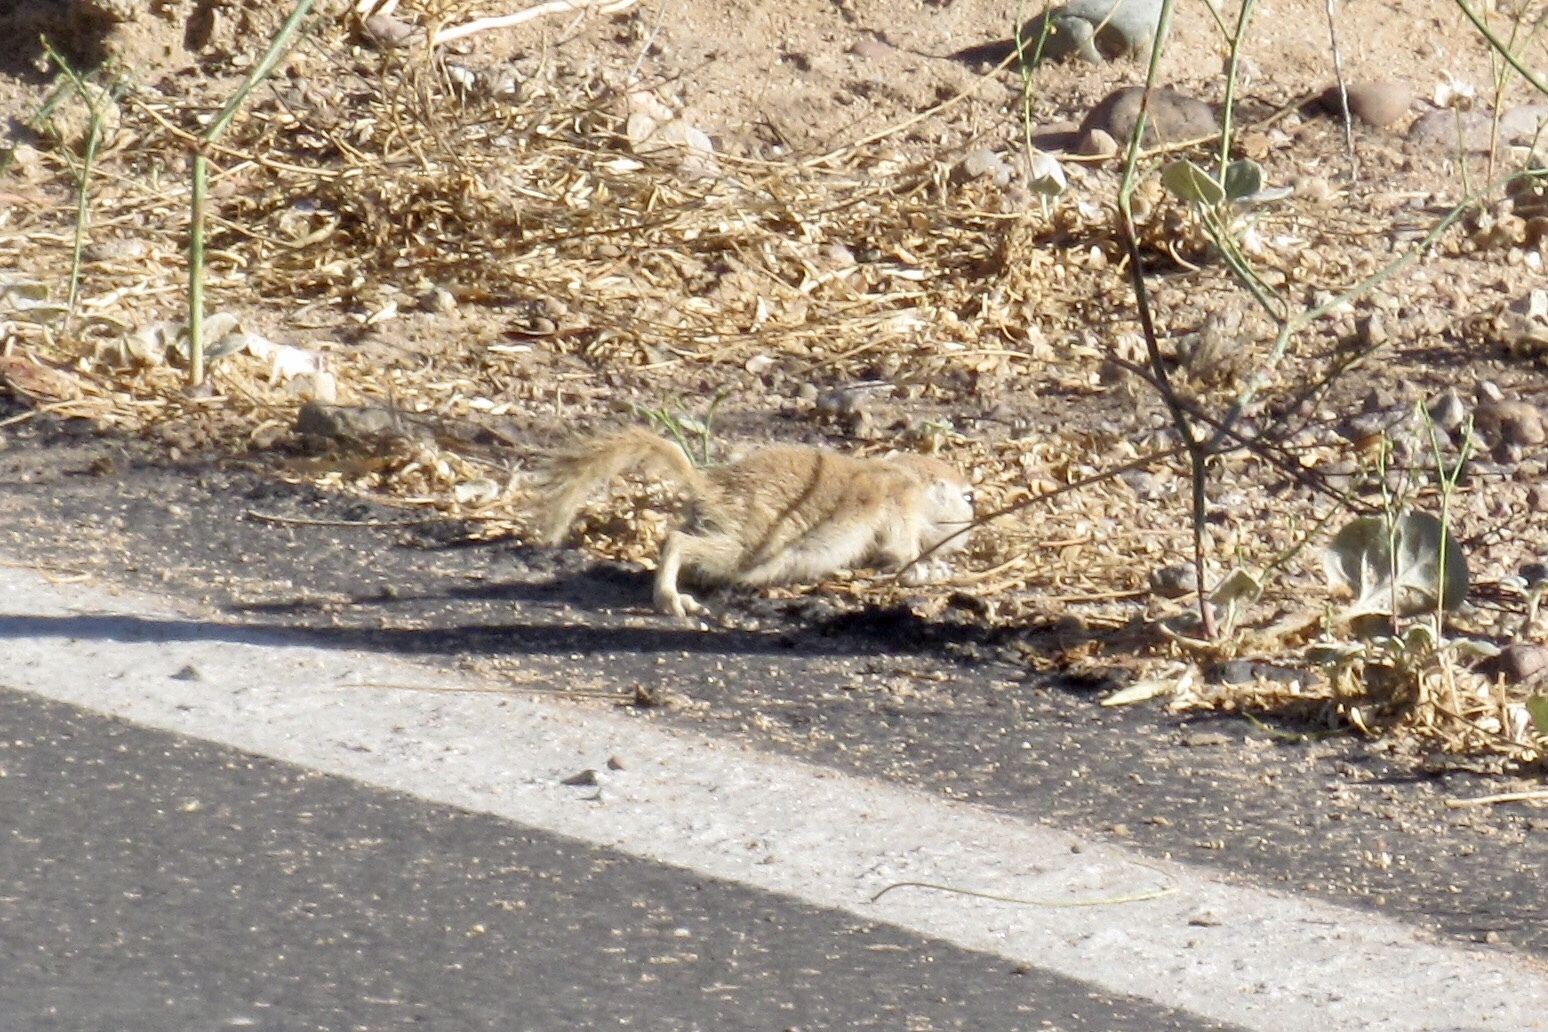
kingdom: Animalia
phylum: Chordata
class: Mammalia
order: Rodentia
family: Sciuridae
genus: Xerospermophilus
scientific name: Xerospermophilus tereticaudus
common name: Round-tailed ground squirrel
